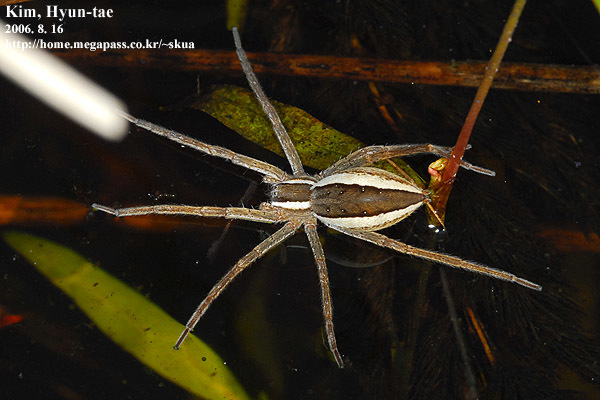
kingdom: Animalia
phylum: Arthropoda
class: Arachnida
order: Araneae
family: Pisauridae
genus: Dolomedes
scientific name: Dolomedes sulfureus
